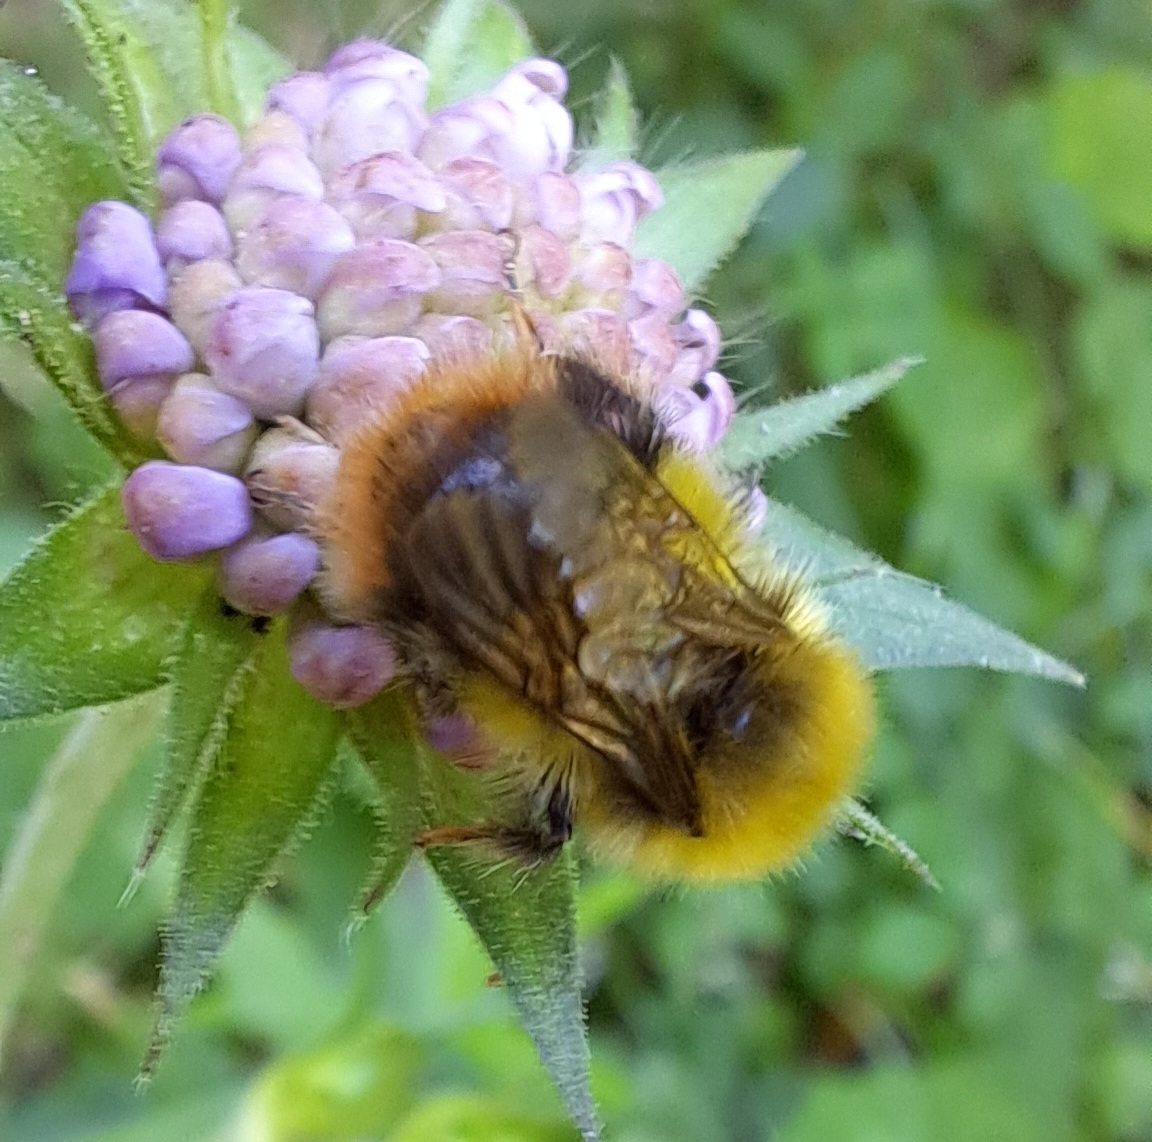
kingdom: Animalia
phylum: Arthropoda
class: Insecta
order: Hymenoptera
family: Apidae
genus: Bombus
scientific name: Bombus pratorum
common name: Early humble-bee
